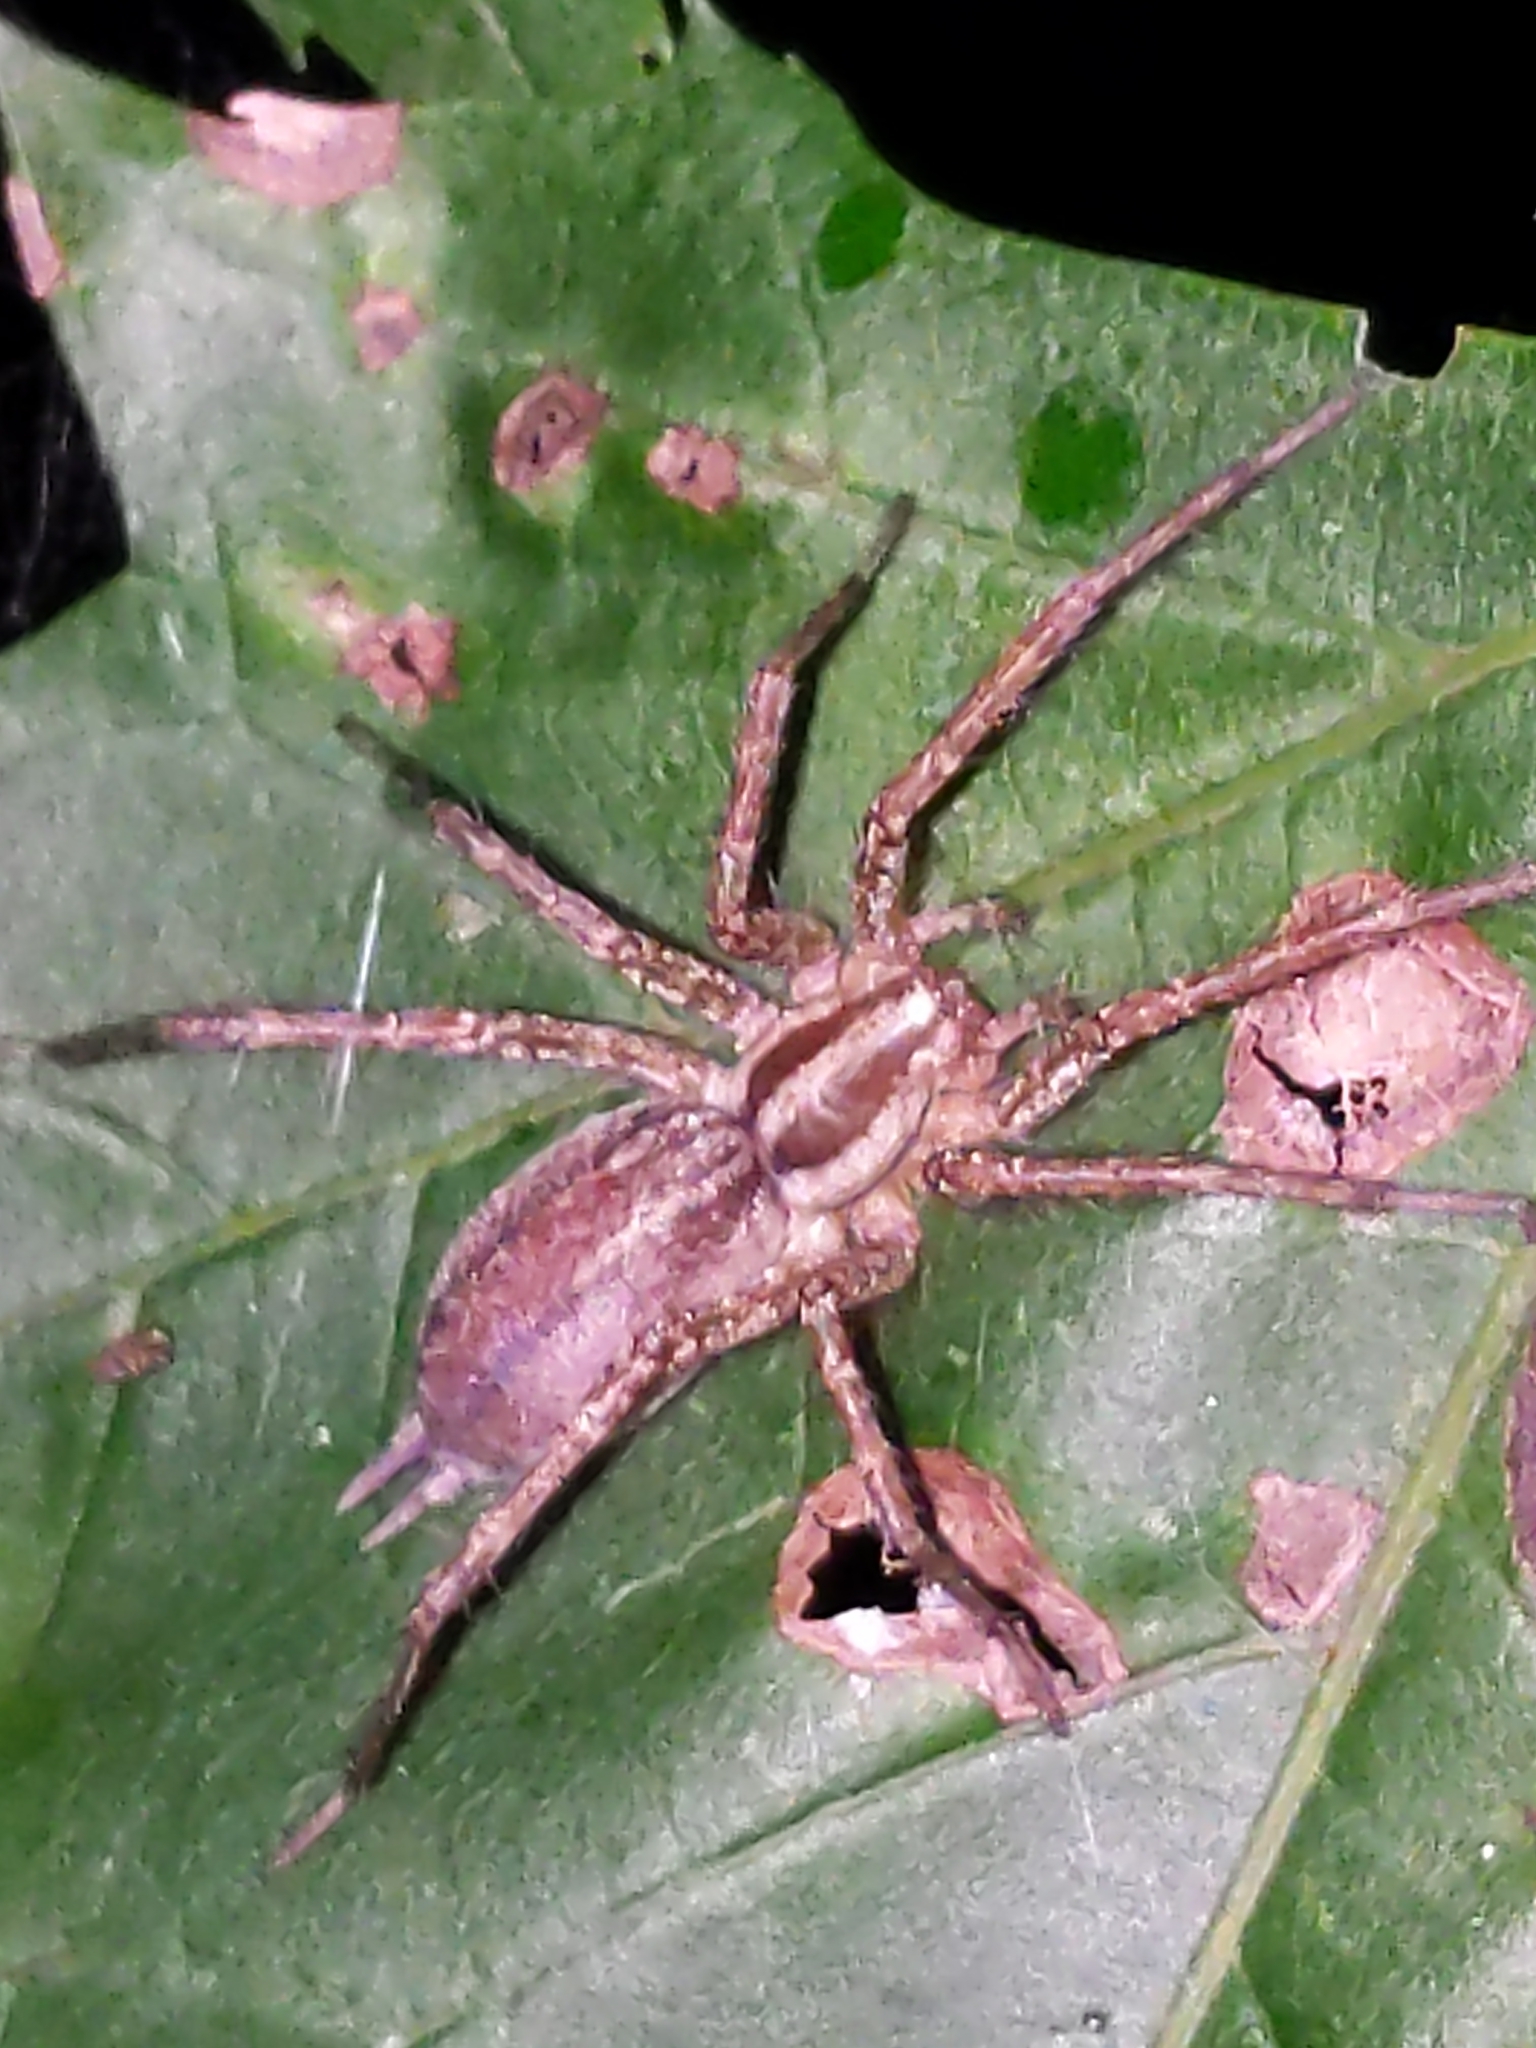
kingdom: Animalia
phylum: Arthropoda
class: Arachnida
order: Araneae
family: Agelenidae
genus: Agelenopsis
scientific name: Agelenopsis
